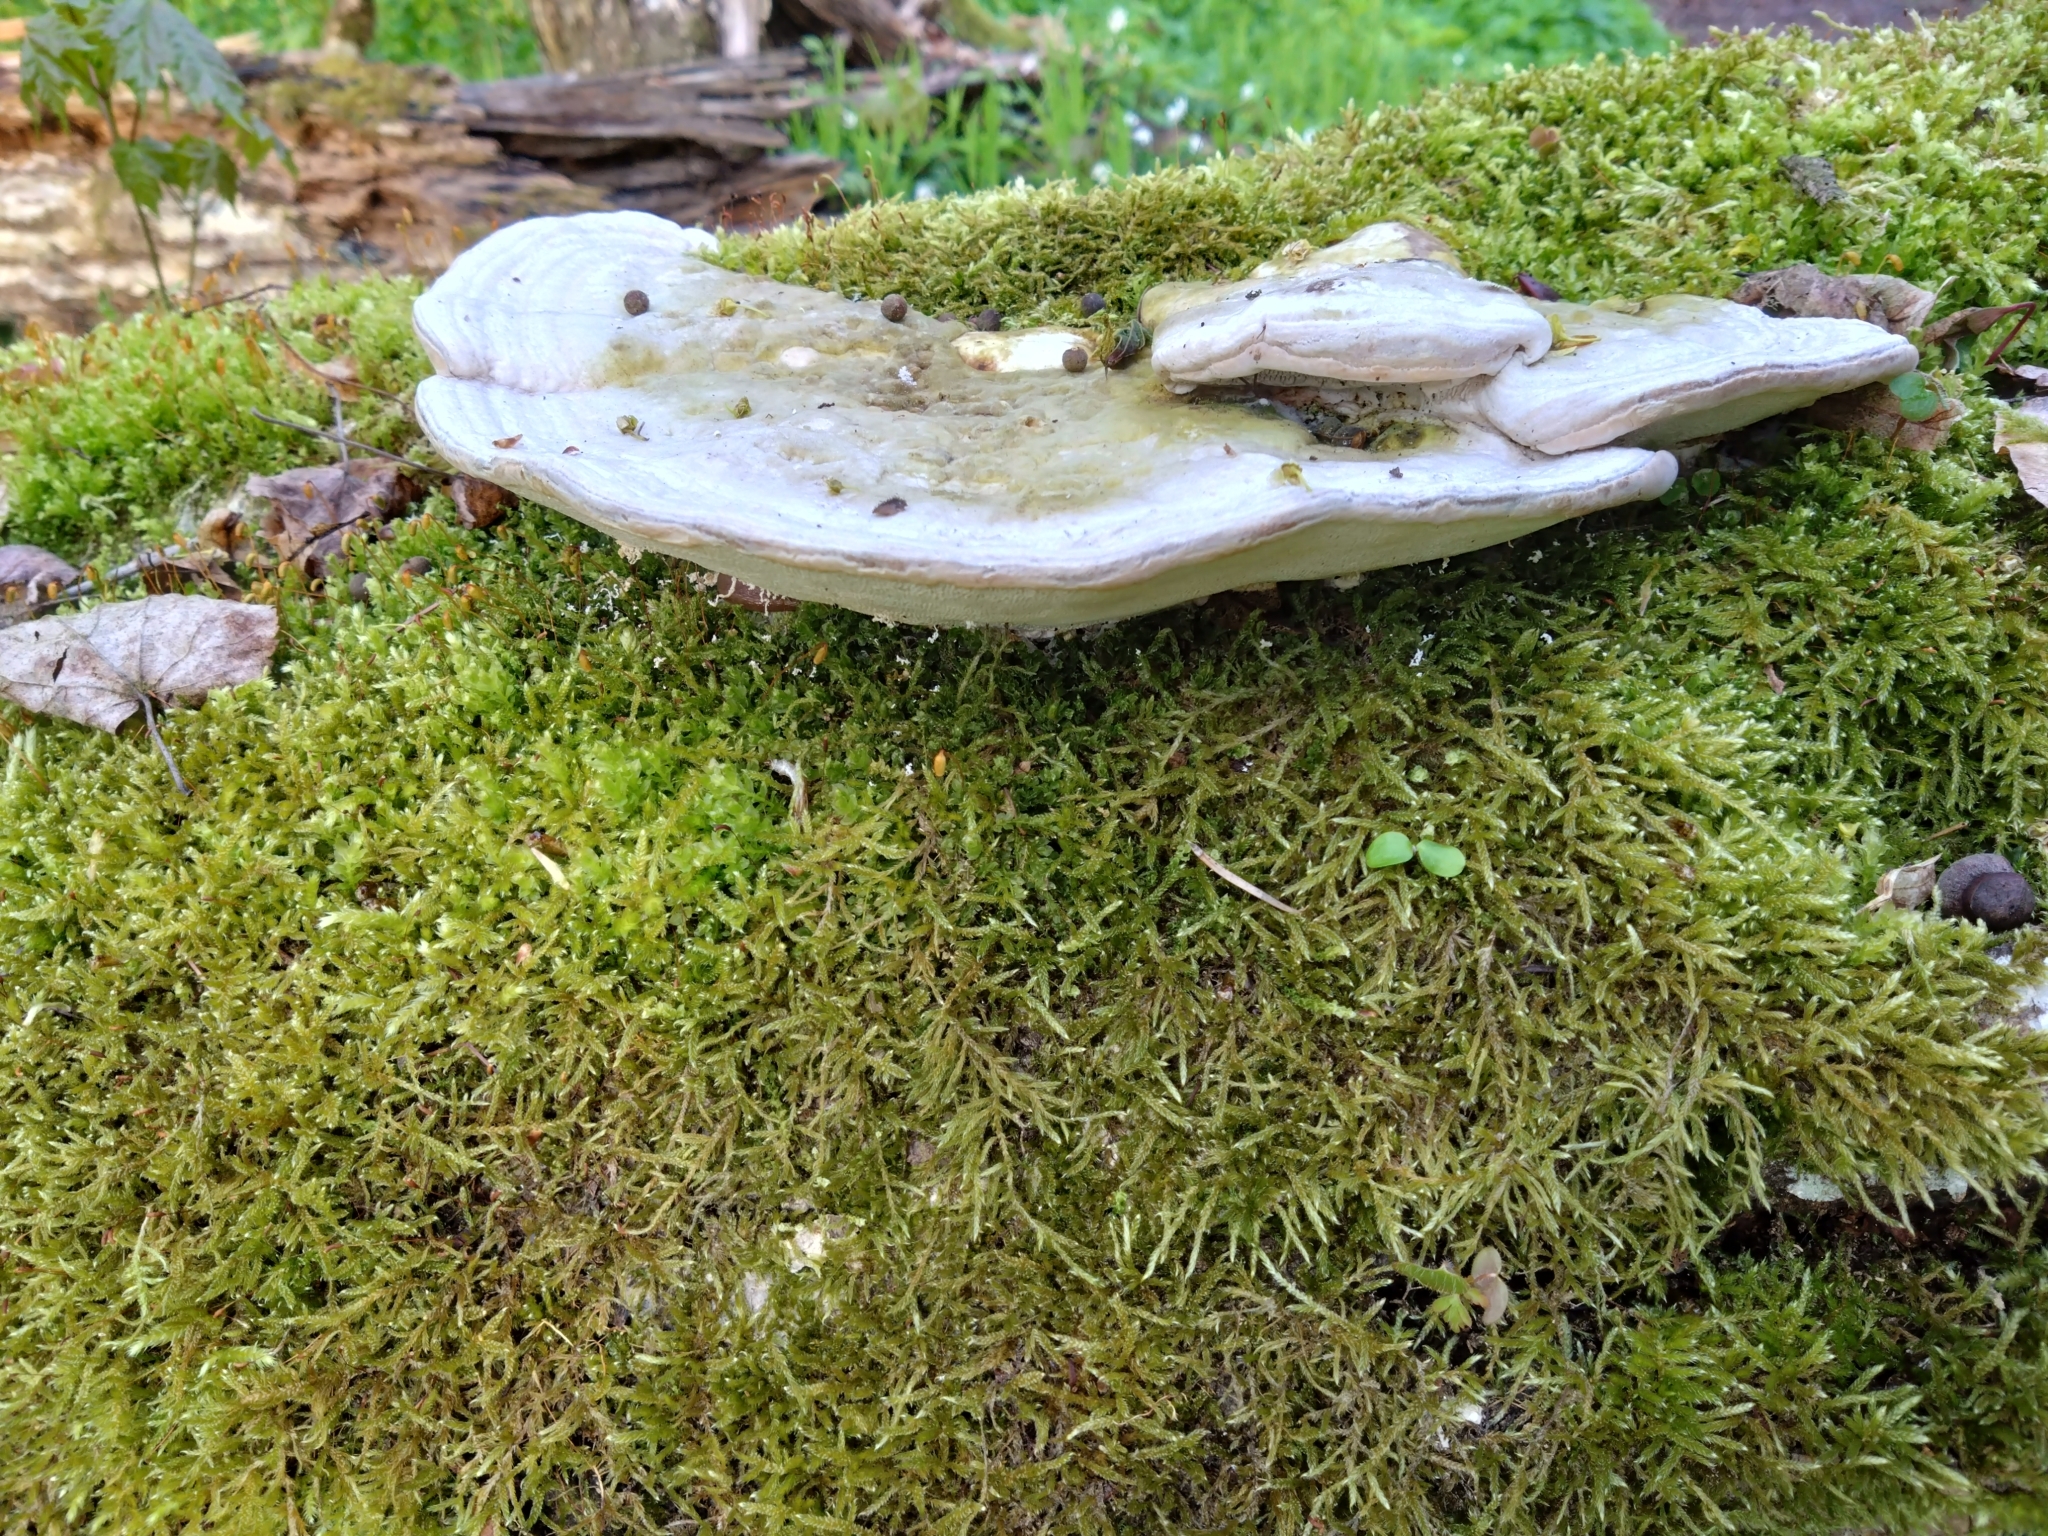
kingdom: Fungi
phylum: Basidiomycota
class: Agaricomycetes
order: Polyporales
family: Polyporaceae
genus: Trametes
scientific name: Trametes gibbosa
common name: Lumpy bracket
